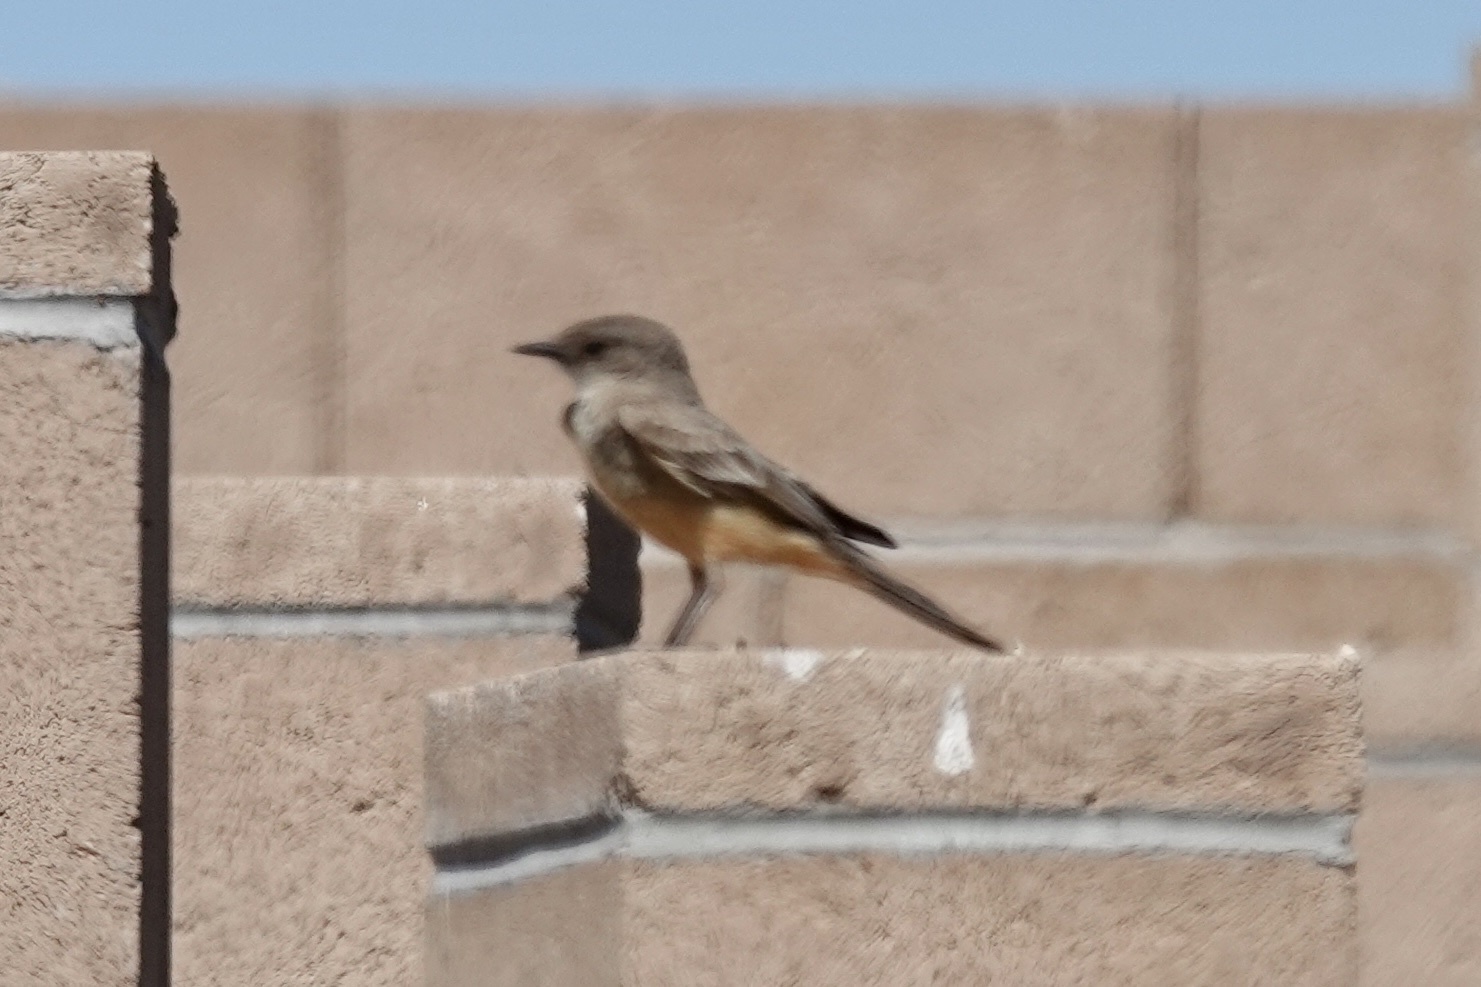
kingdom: Animalia
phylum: Chordata
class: Aves
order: Passeriformes
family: Tyrannidae
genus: Sayornis
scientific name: Sayornis saya
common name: Say's phoebe
